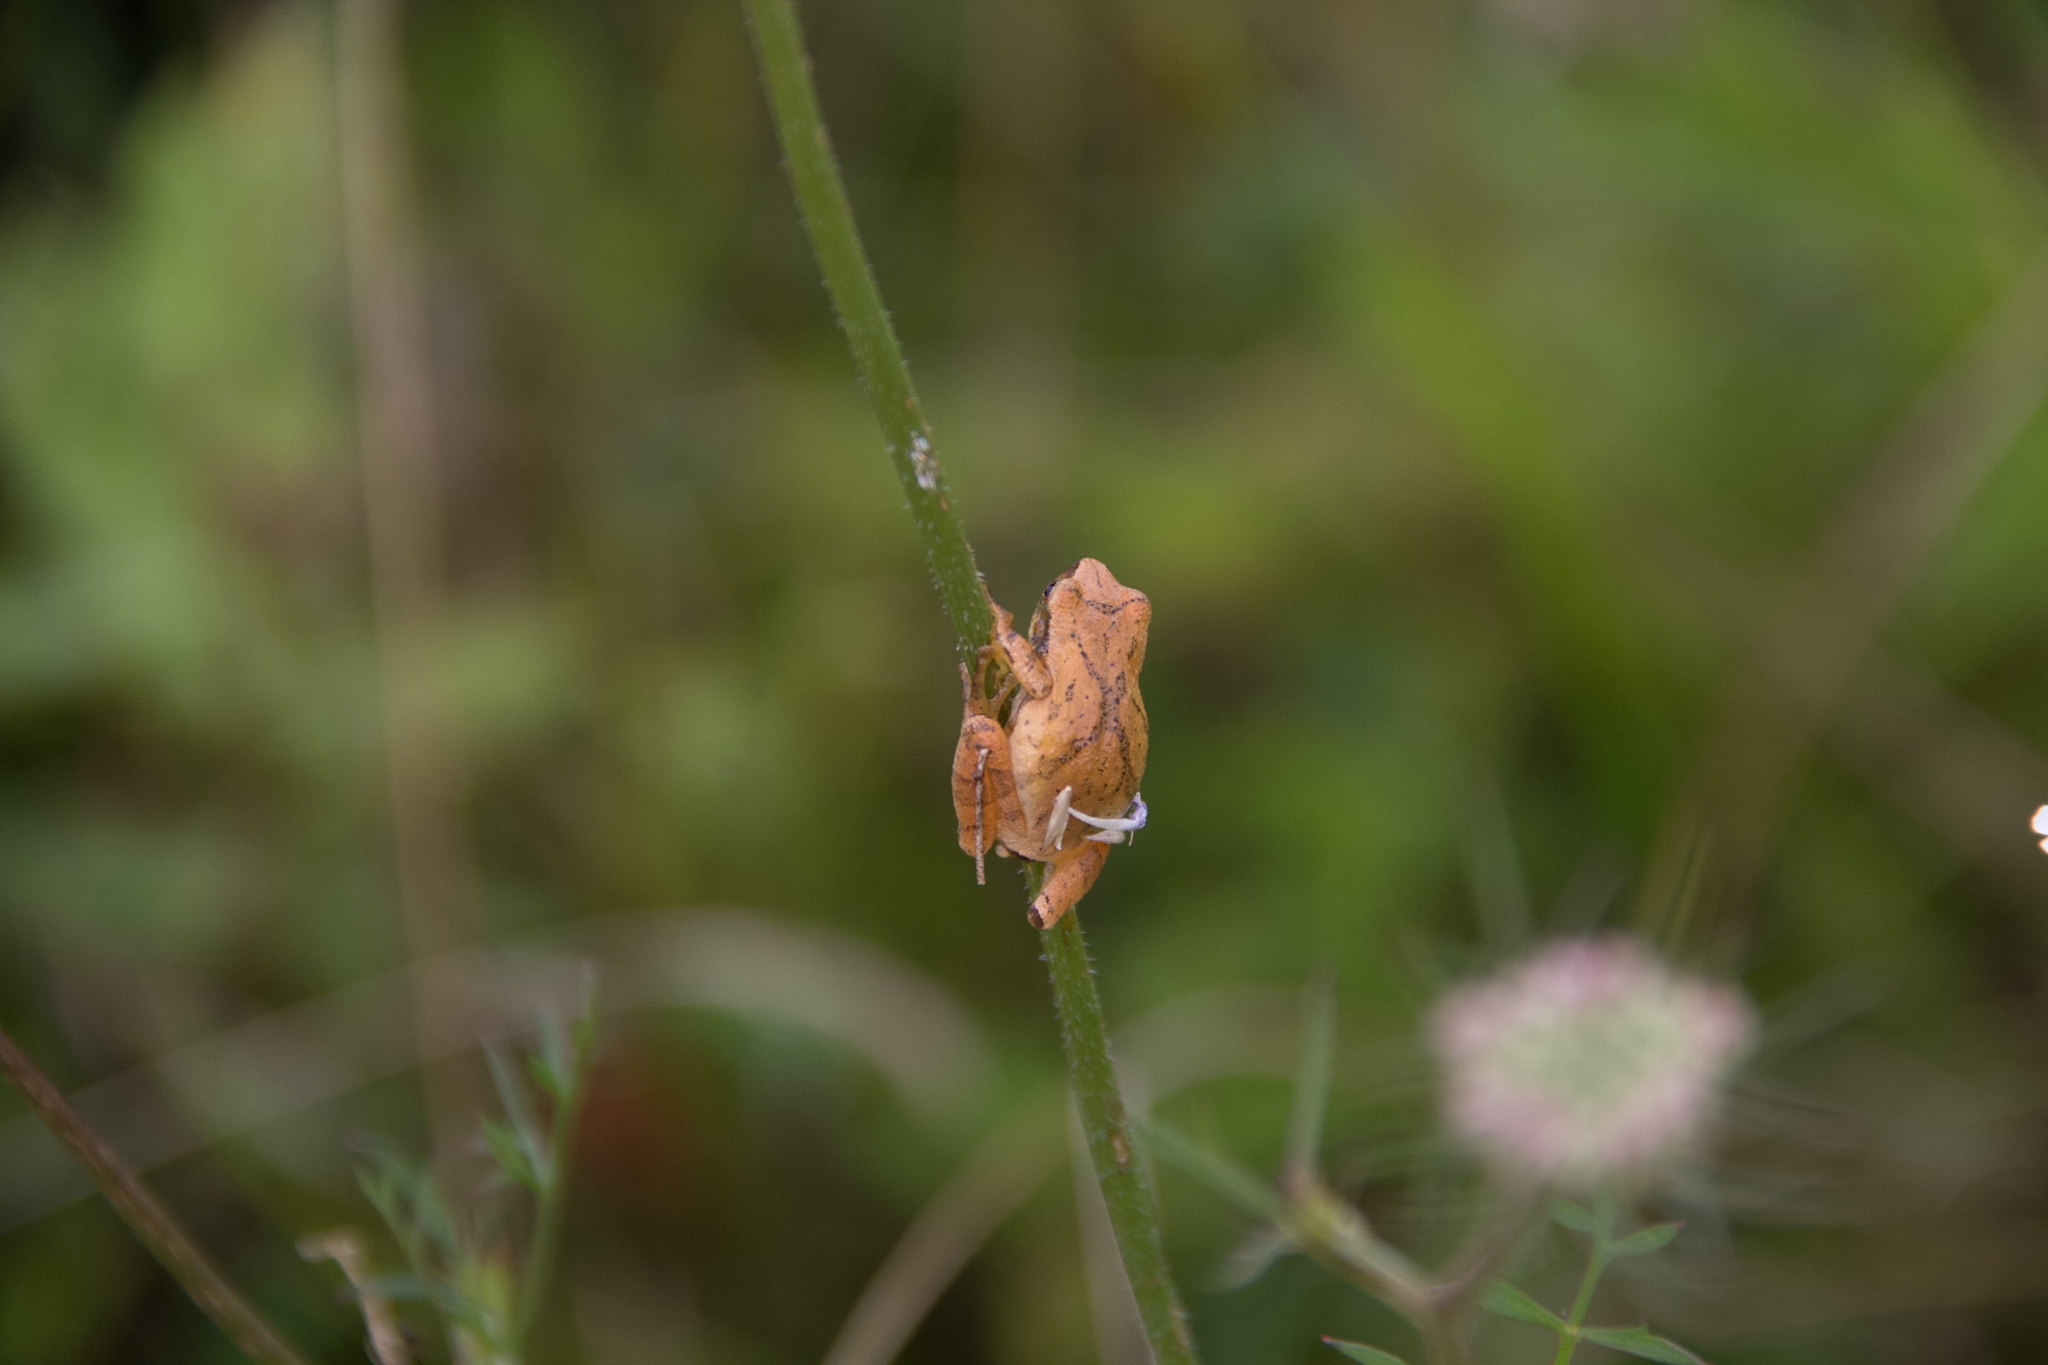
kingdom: Animalia
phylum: Chordata
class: Amphibia
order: Anura
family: Hylidae
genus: Pseudacris
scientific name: Pseudacris crucifer
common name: Spring peeper
